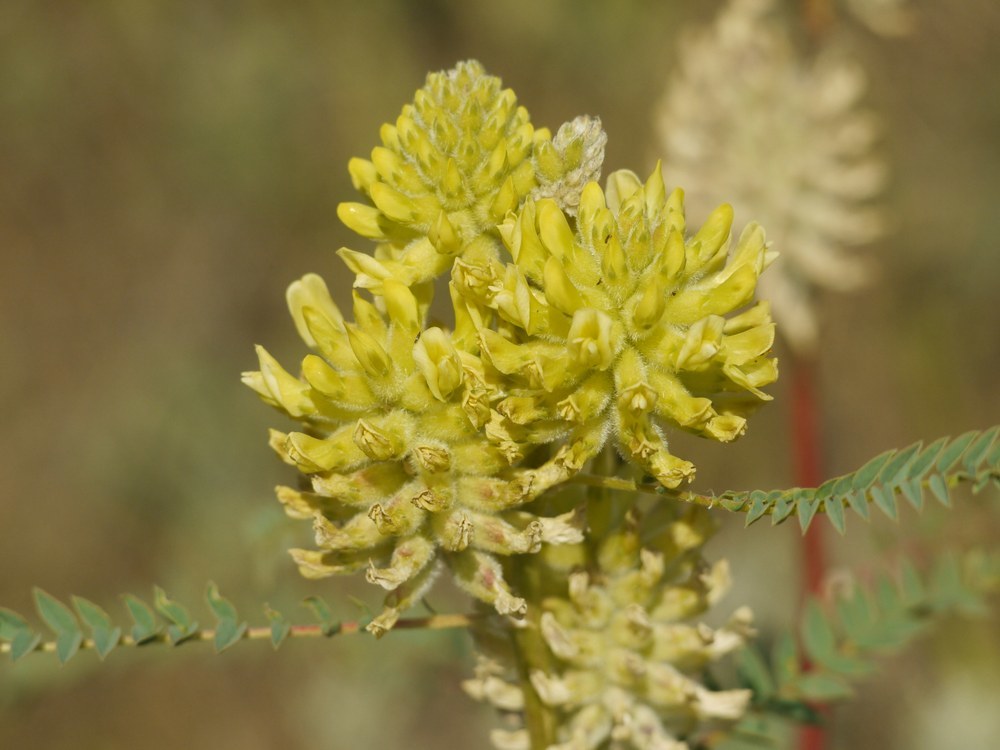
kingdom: Plantae
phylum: Tracheophyta
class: Magnoliopsida
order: Fabales
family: Fabaceae
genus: Astragalus
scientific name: Astragalus ponticus
